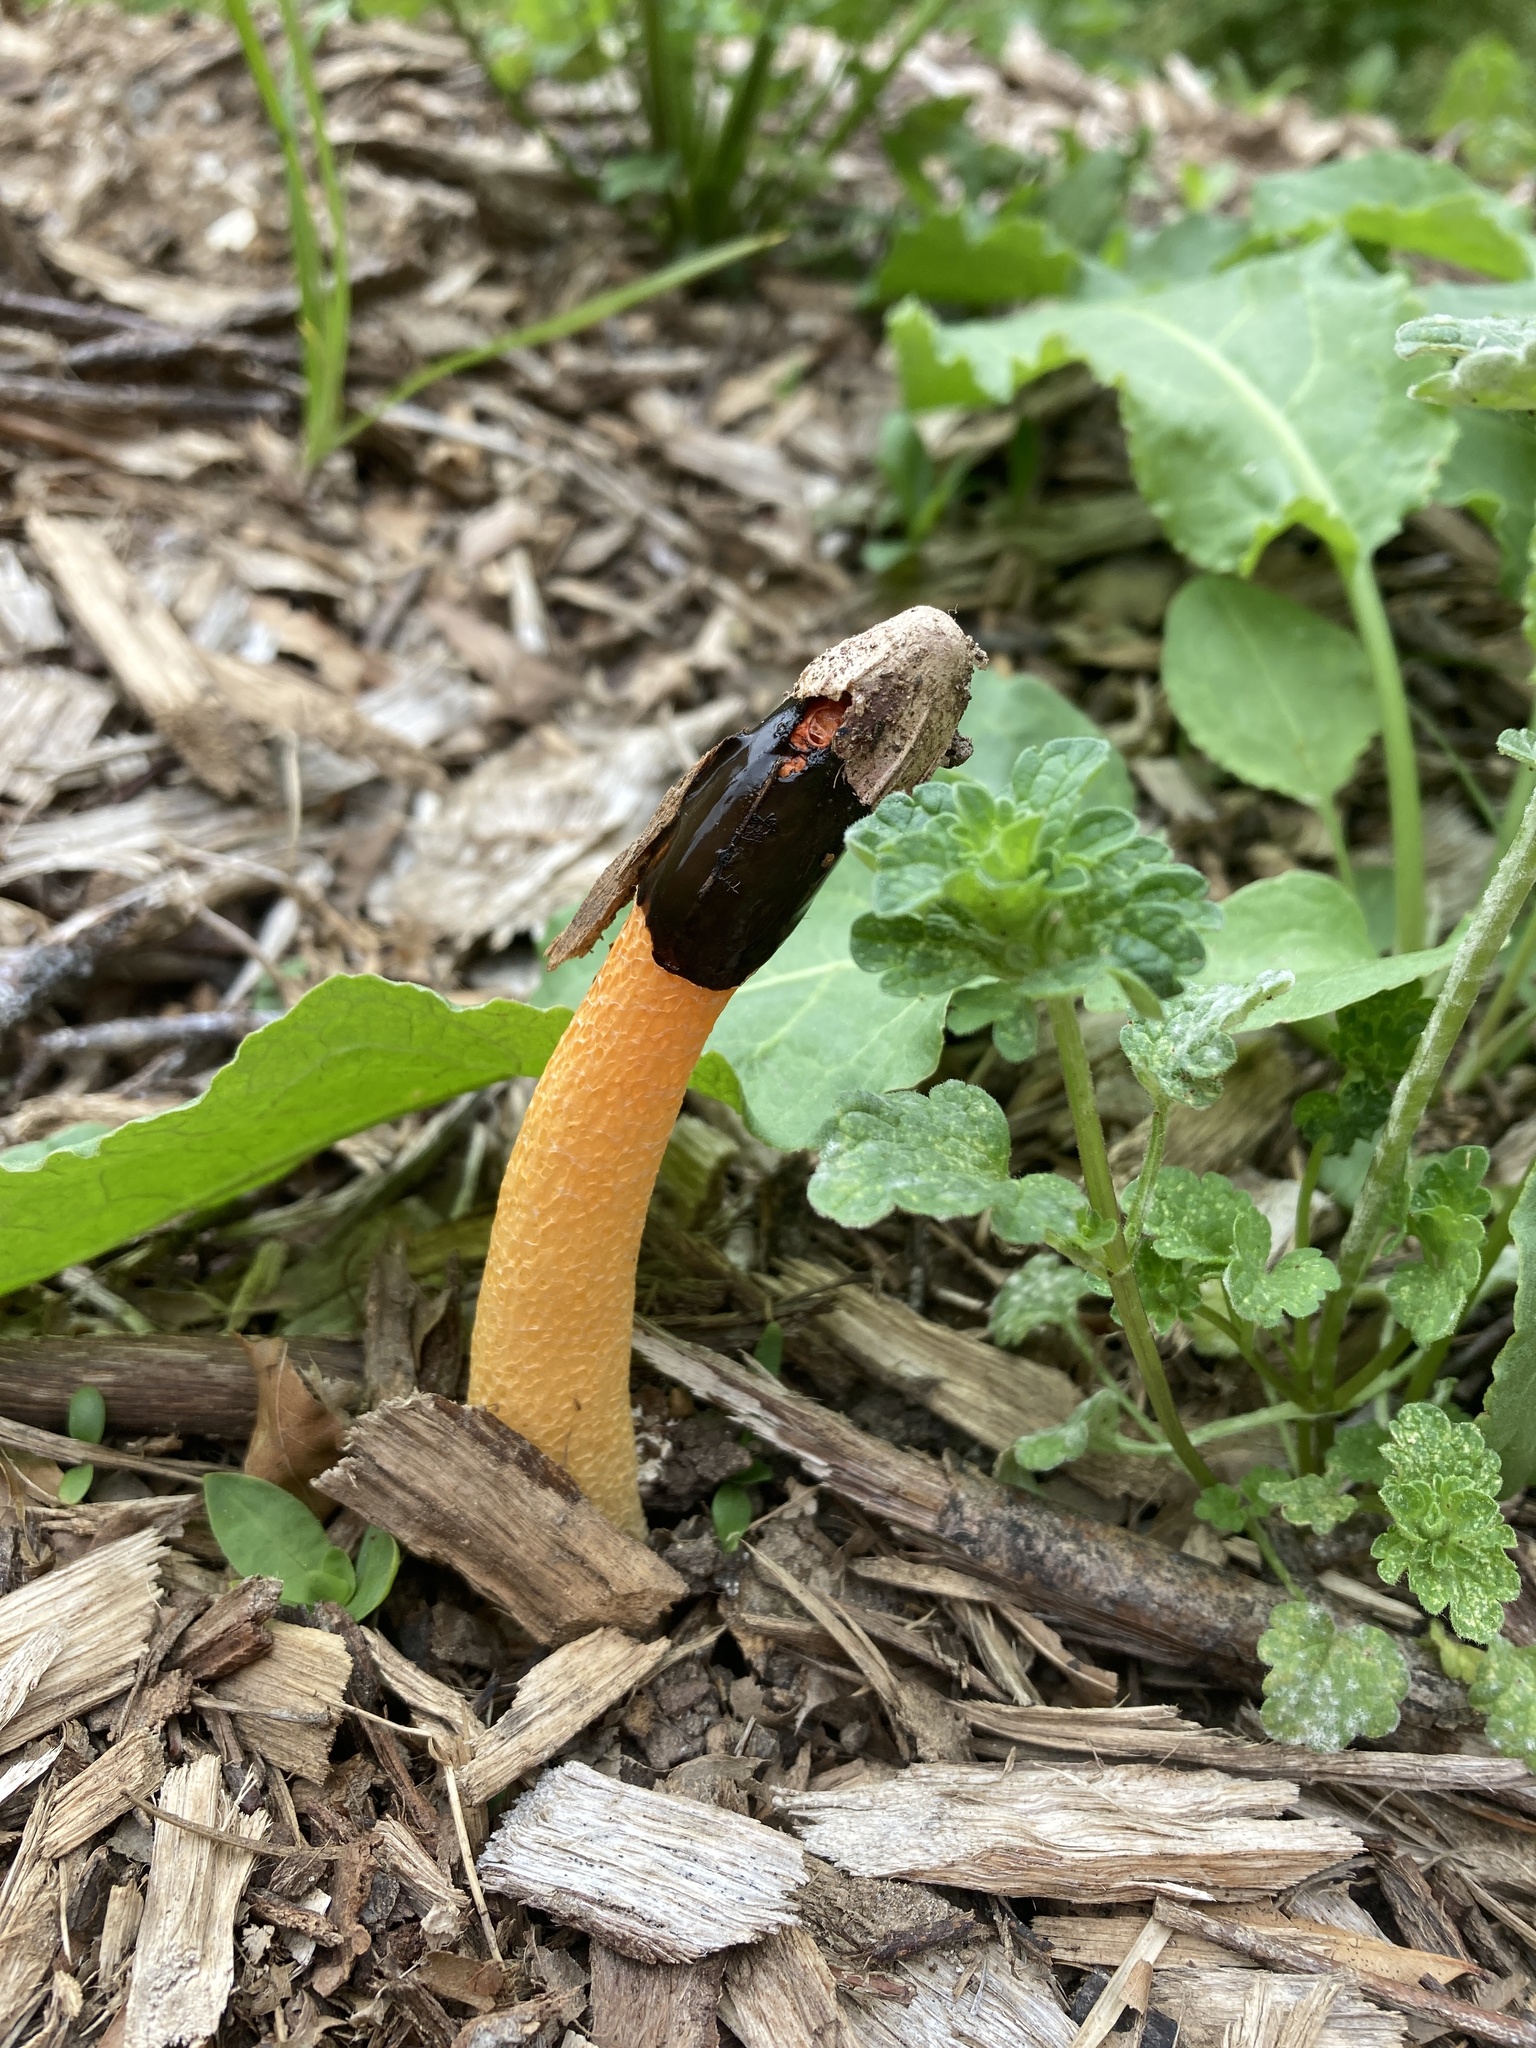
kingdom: Fungi
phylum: Basidiomycota
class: Agaricomycetes
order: Phallales
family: Phallaceae
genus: Phallus
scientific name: Phallus rugulosus
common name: Wrinkly stinkhorn
